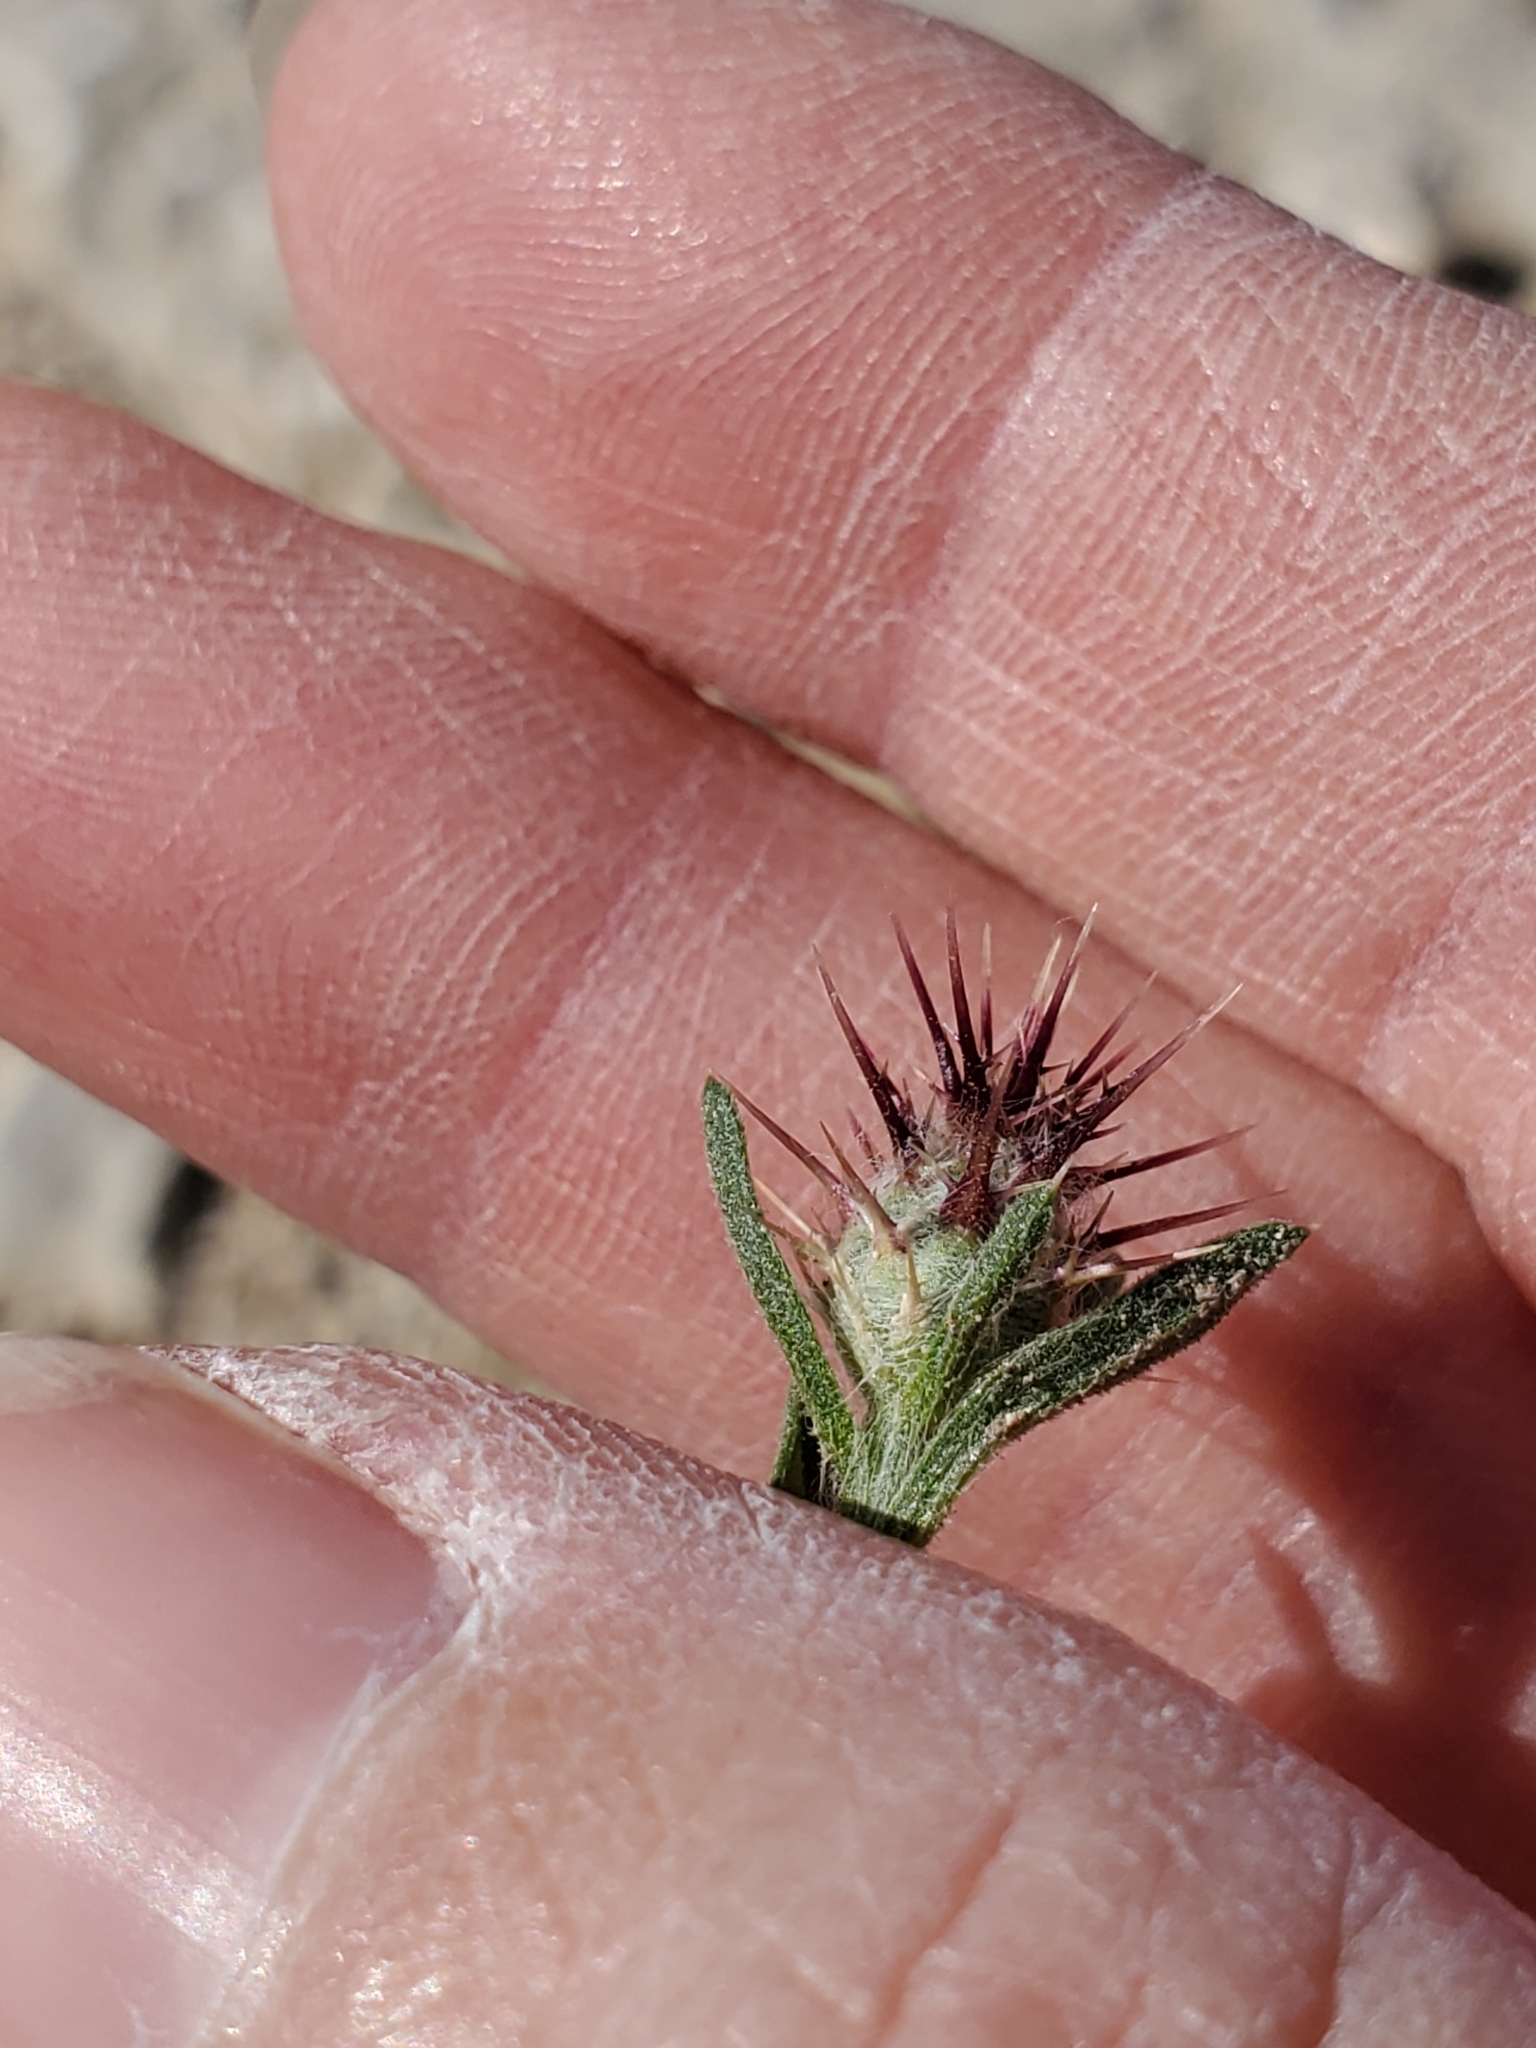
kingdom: Plantae
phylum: Tracheophyta
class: Magnoliopsida
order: Asterales
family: Asteraceae
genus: Centaurea
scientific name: Centaurea melitensis
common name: Maltese star-thistle
